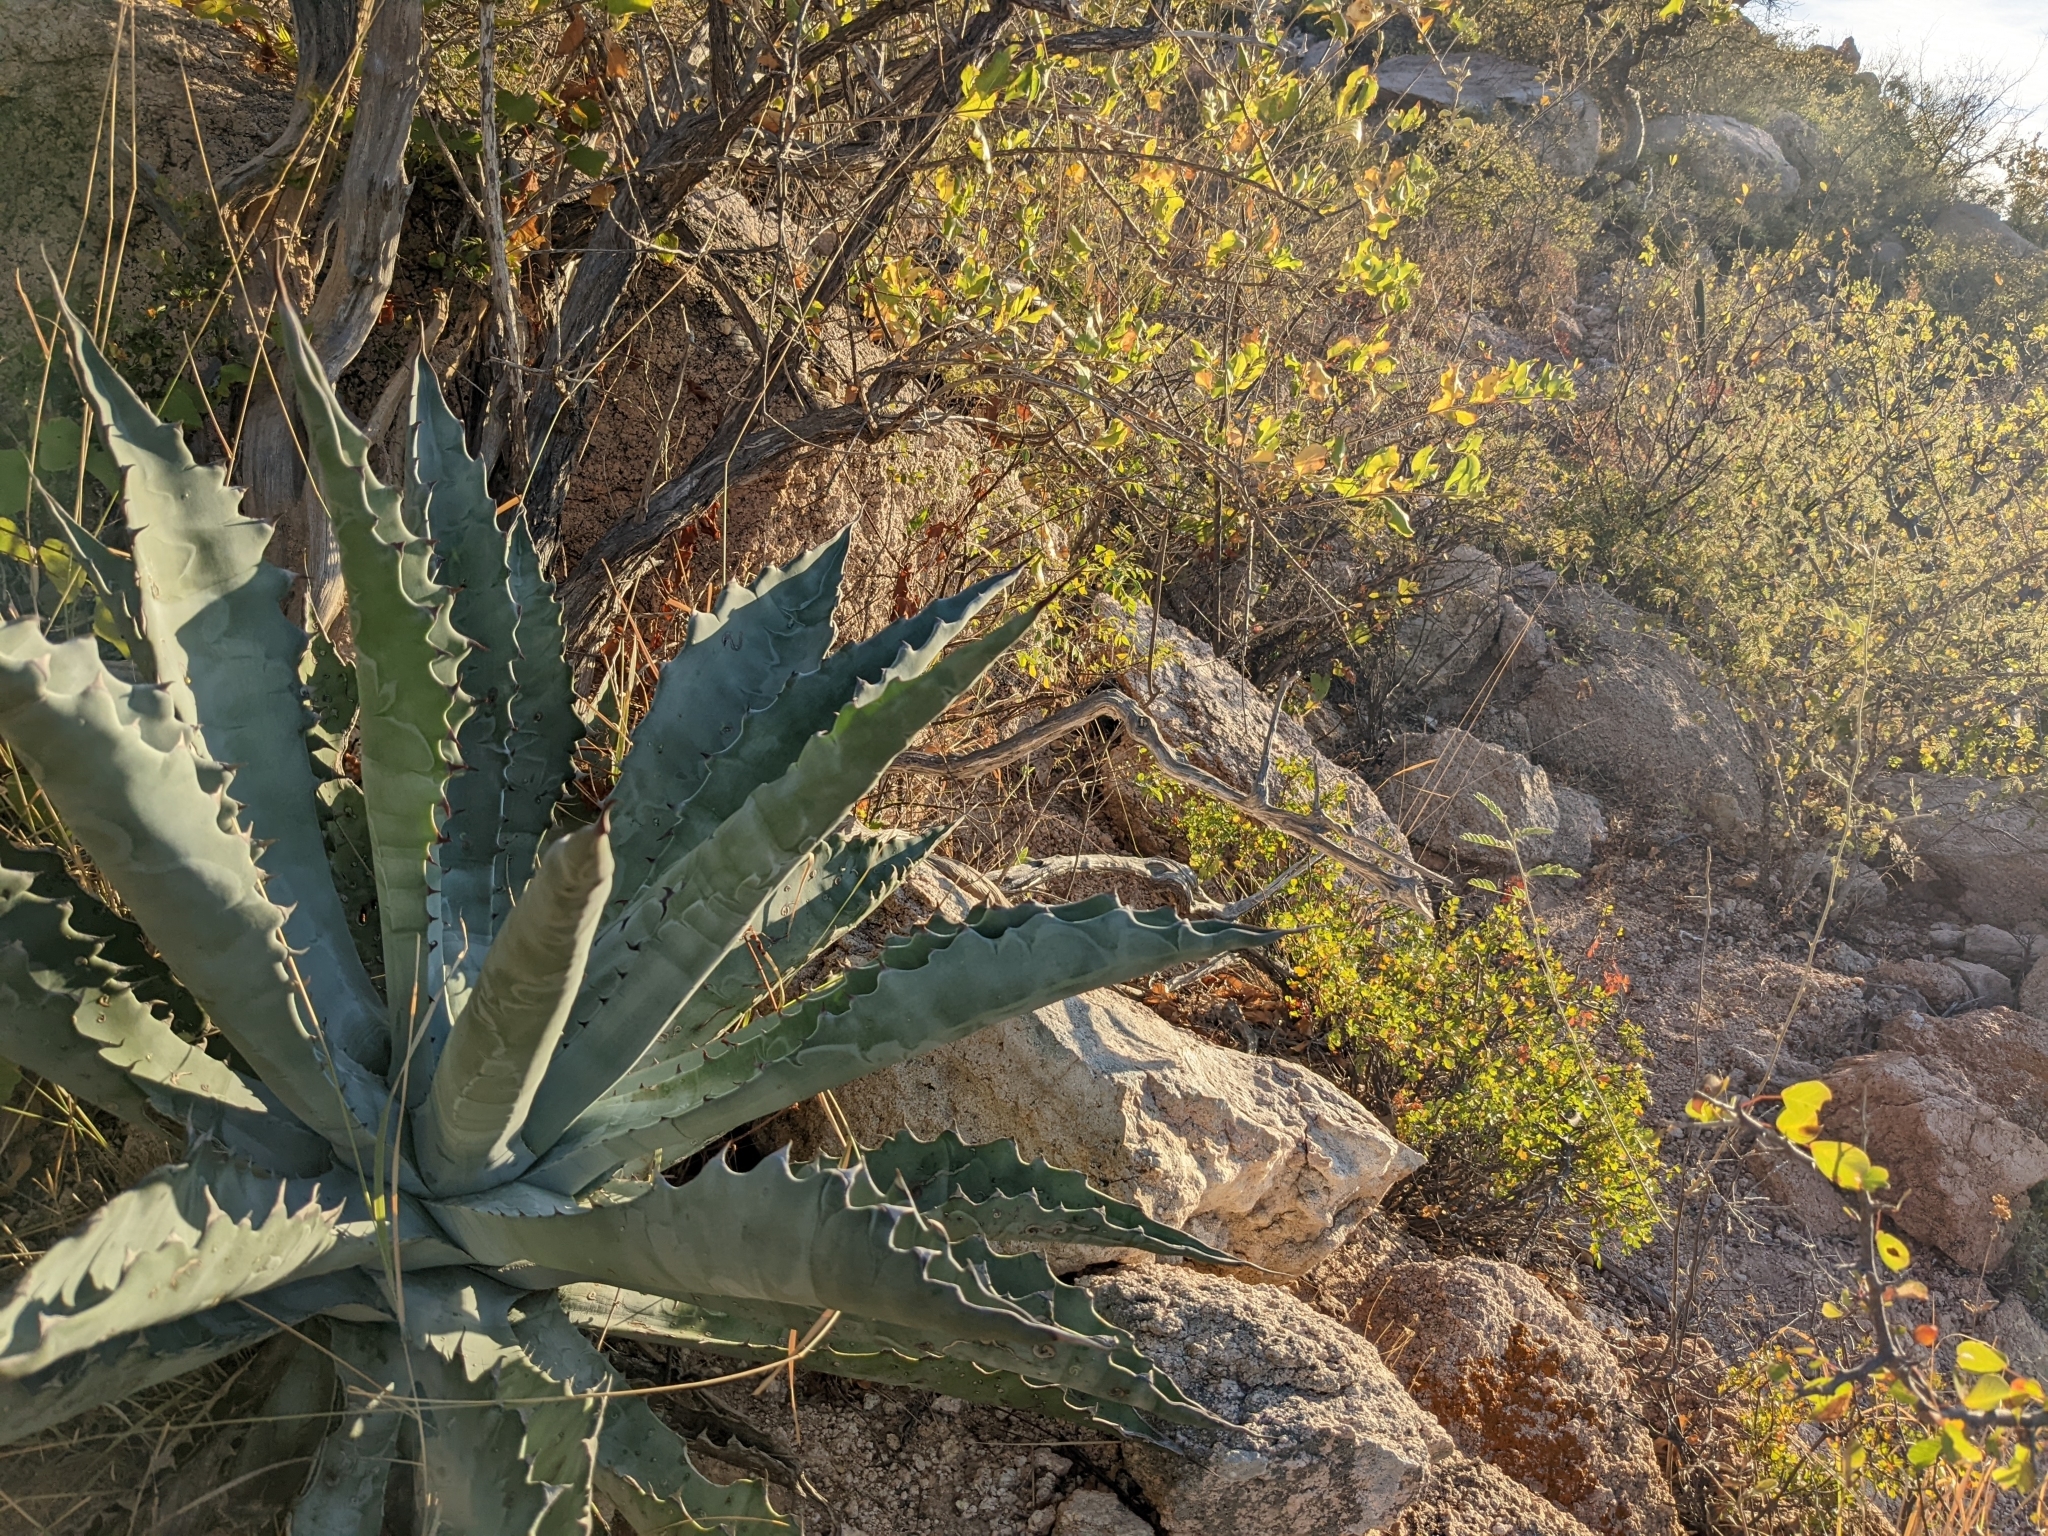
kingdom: Plantae
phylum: Tracheophyta
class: Liliopsida
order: Asparagales
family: Asparagaceae
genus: Agave
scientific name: Agave sobria
